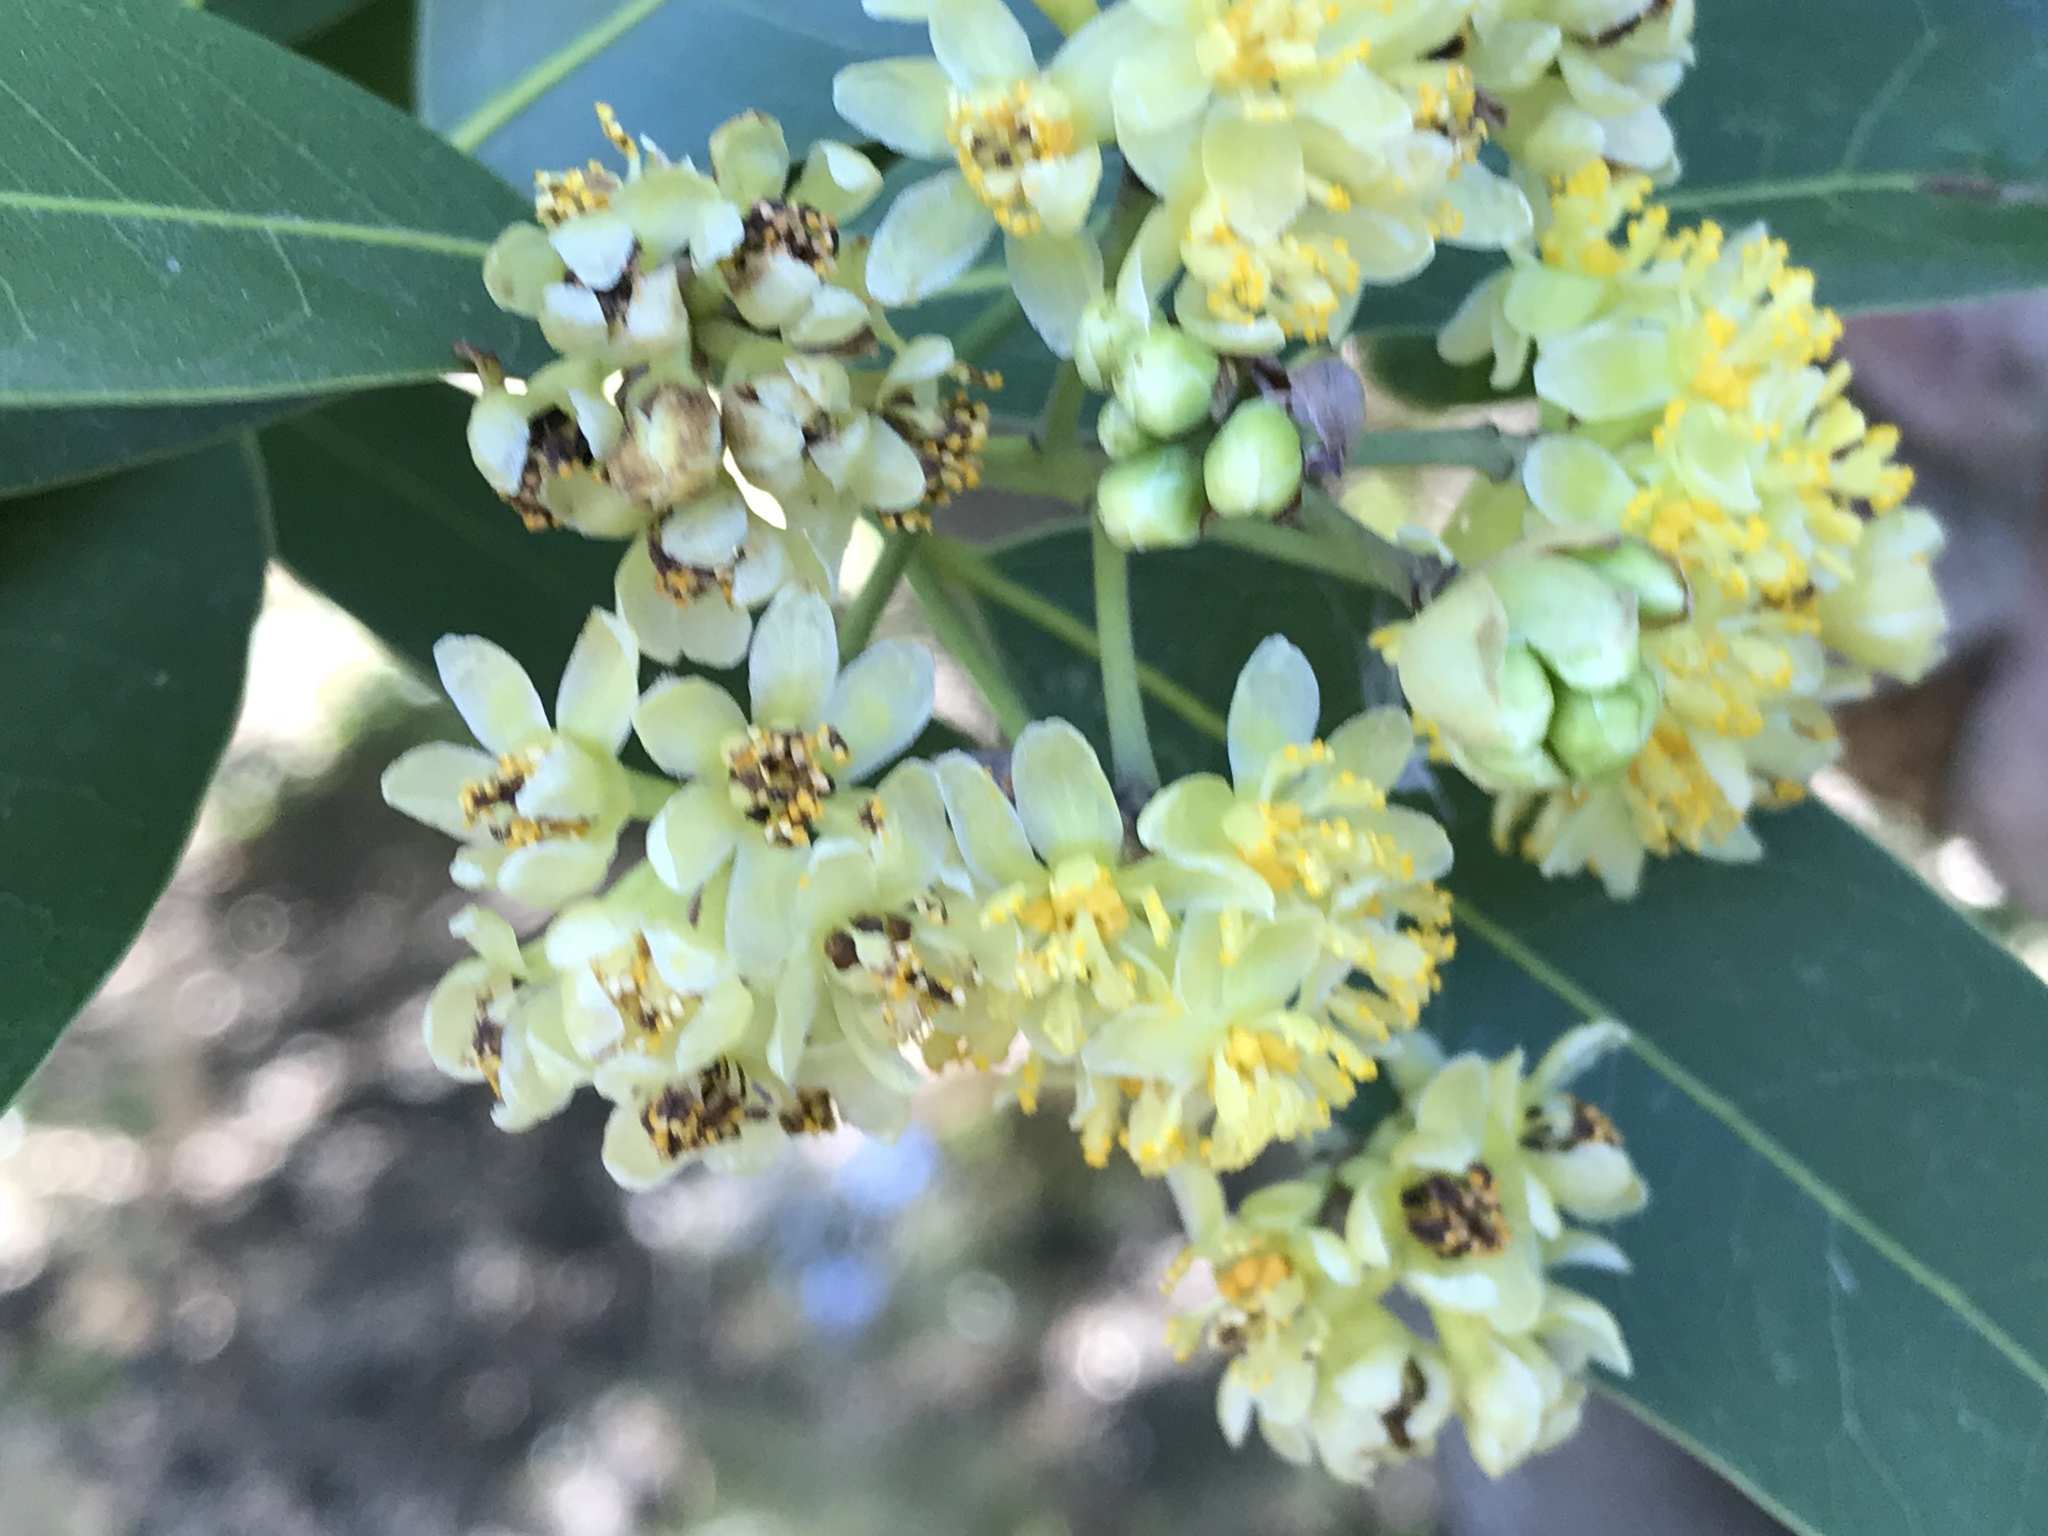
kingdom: Plantae
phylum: Tracheophyta
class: Magnoliopsida
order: Laurales
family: Lauraceae
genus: Umbellularia
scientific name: Umbellularia californica
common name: California bay
